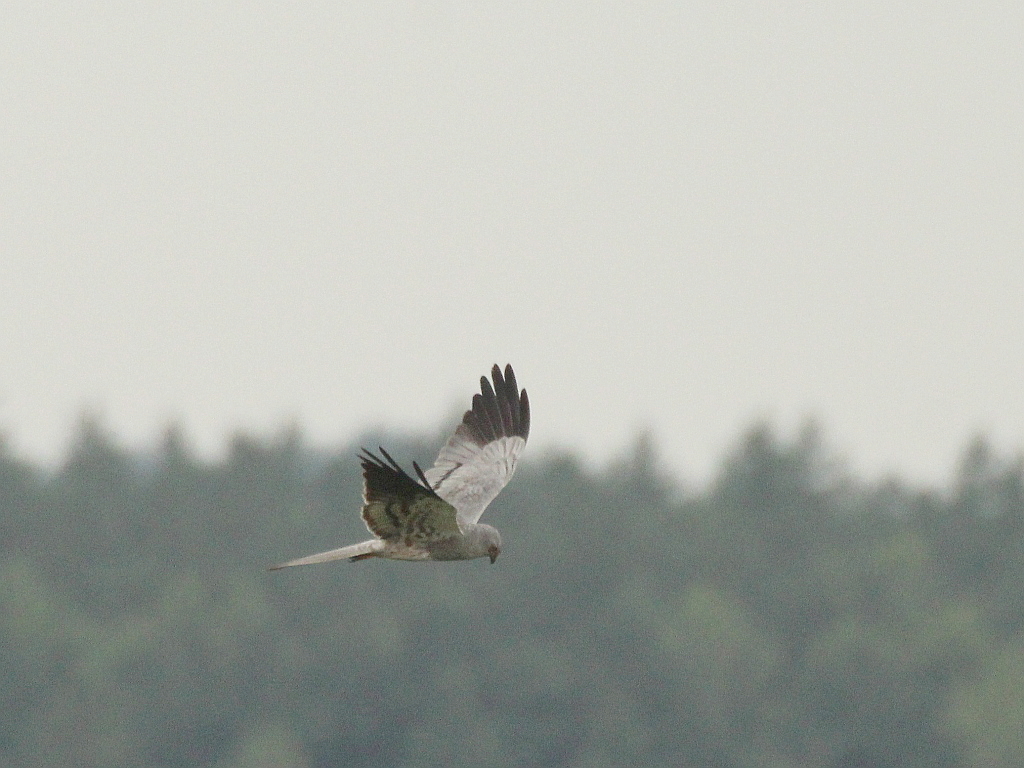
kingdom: Animalia
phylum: Chordata
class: Aves
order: Accipitriformes
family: Accipitridae
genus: Circus
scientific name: Circus pygargus
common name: Montagu's harrier
